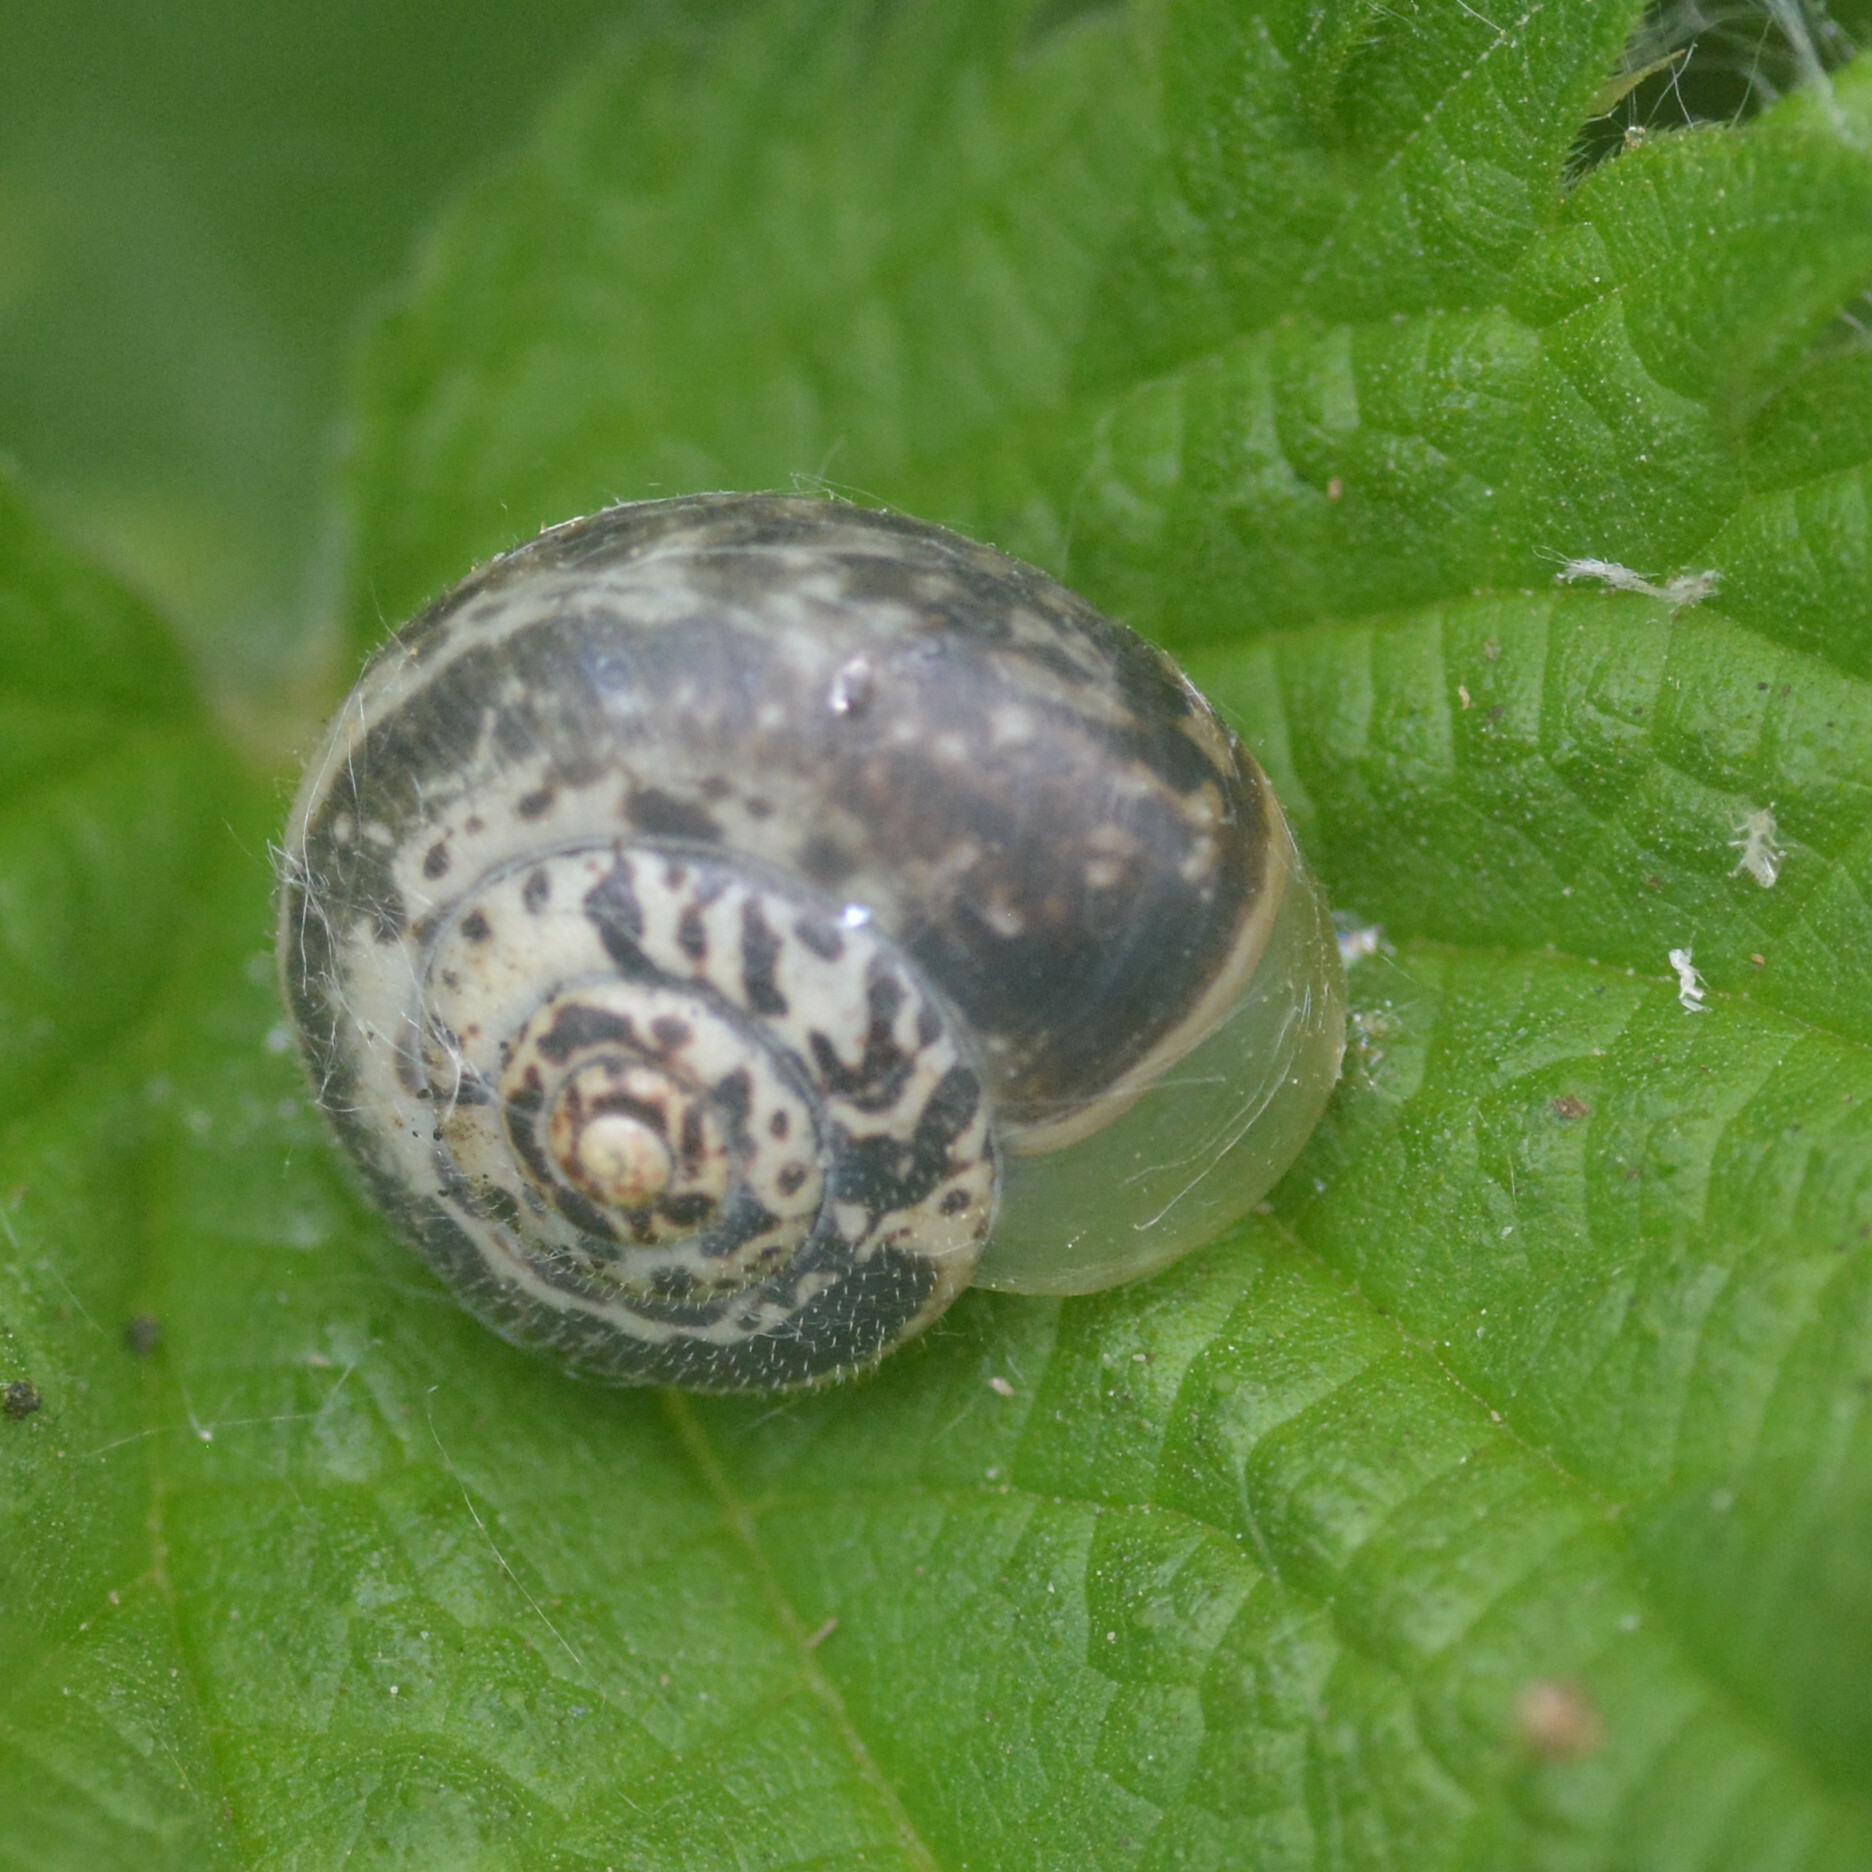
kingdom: Animalia
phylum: Mollusca
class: Gastropoda
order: Stylommatophora
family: Hygromiidae
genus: Monacha
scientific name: Monacha cantiana
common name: Kentish snail
